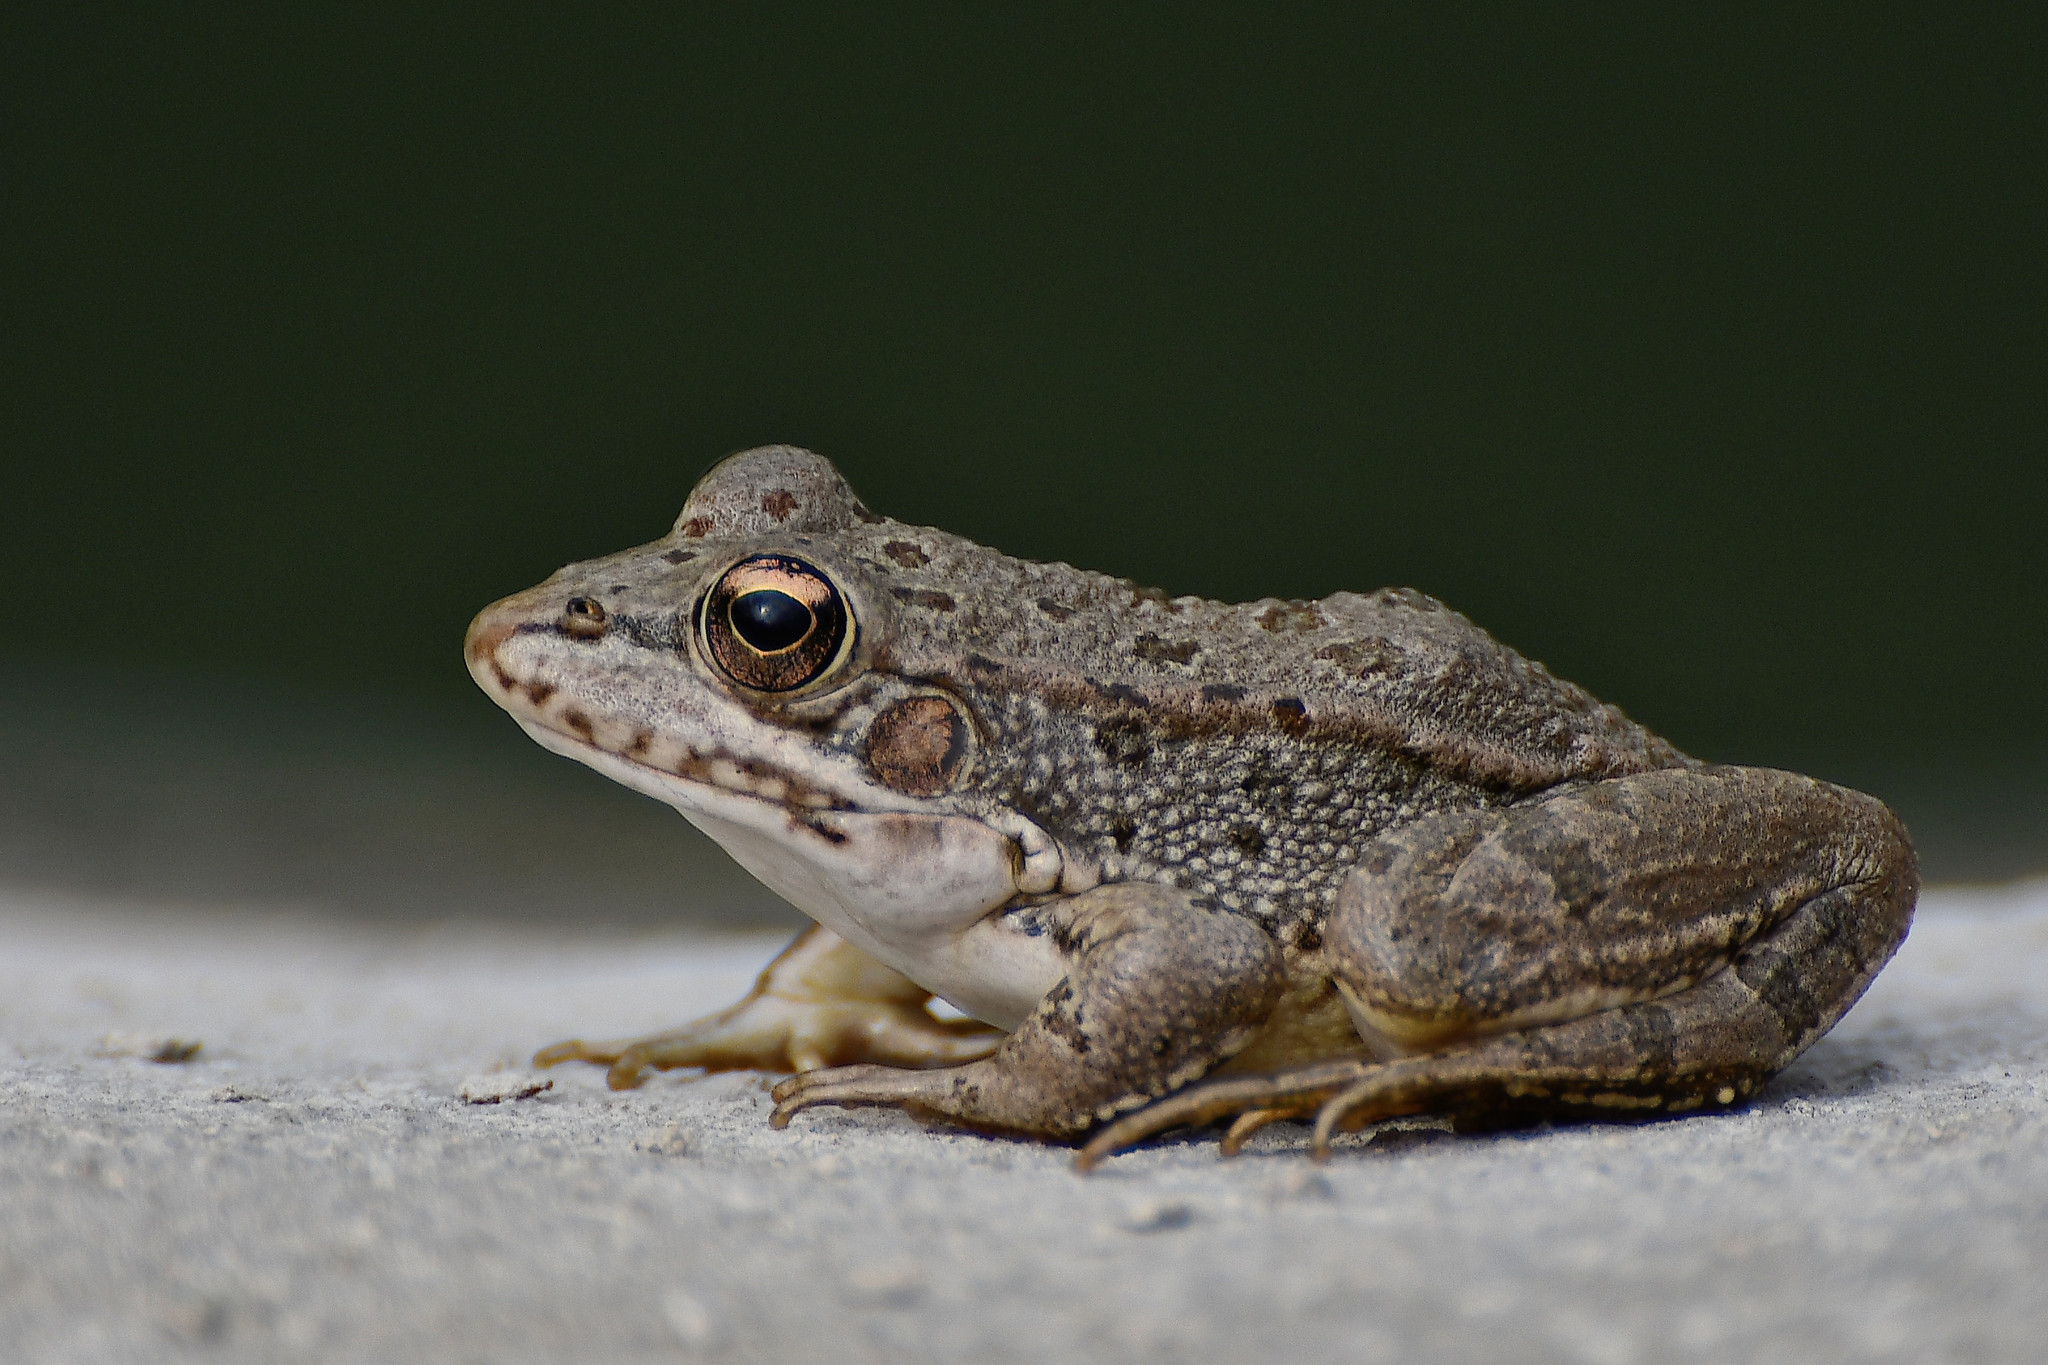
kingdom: Animalia
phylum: Chordata
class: Amphibia
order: Anura
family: Ranidae
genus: Pelophylax
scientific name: Pelophylax perezi
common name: Perez's frog
